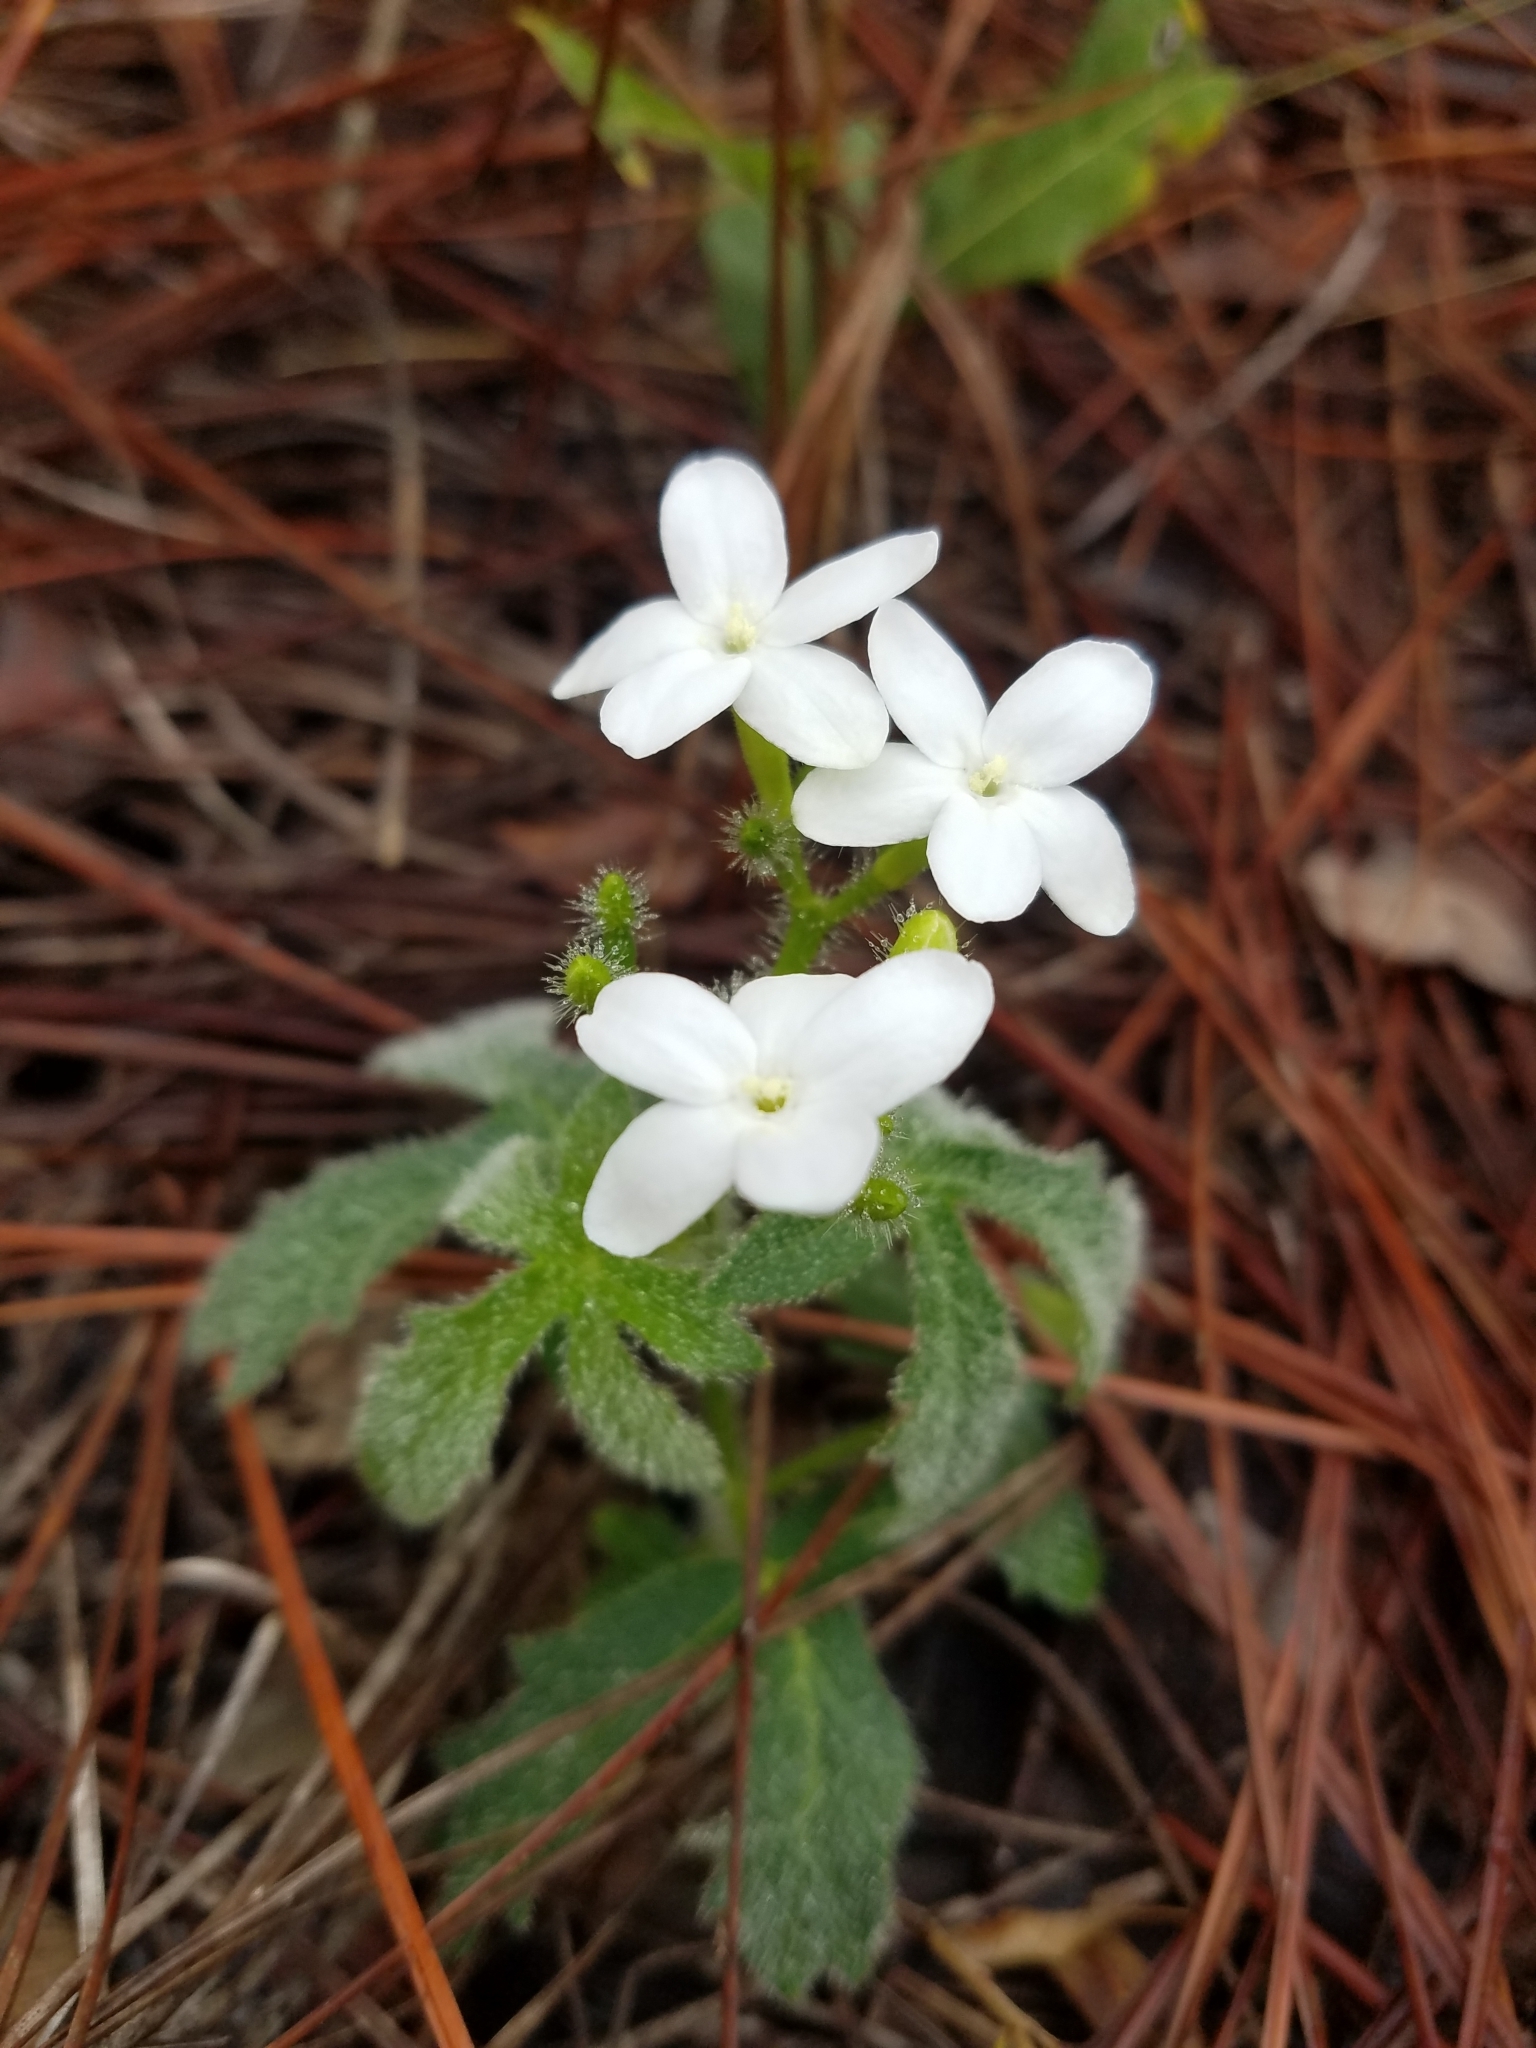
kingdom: Plantae
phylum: Tracheophyta
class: Magnoliopsida
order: Malpighiales
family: Euphorbiaceae
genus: Cnidoscolus
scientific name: Cnidoscolus stimulosus
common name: Bull-nettle
